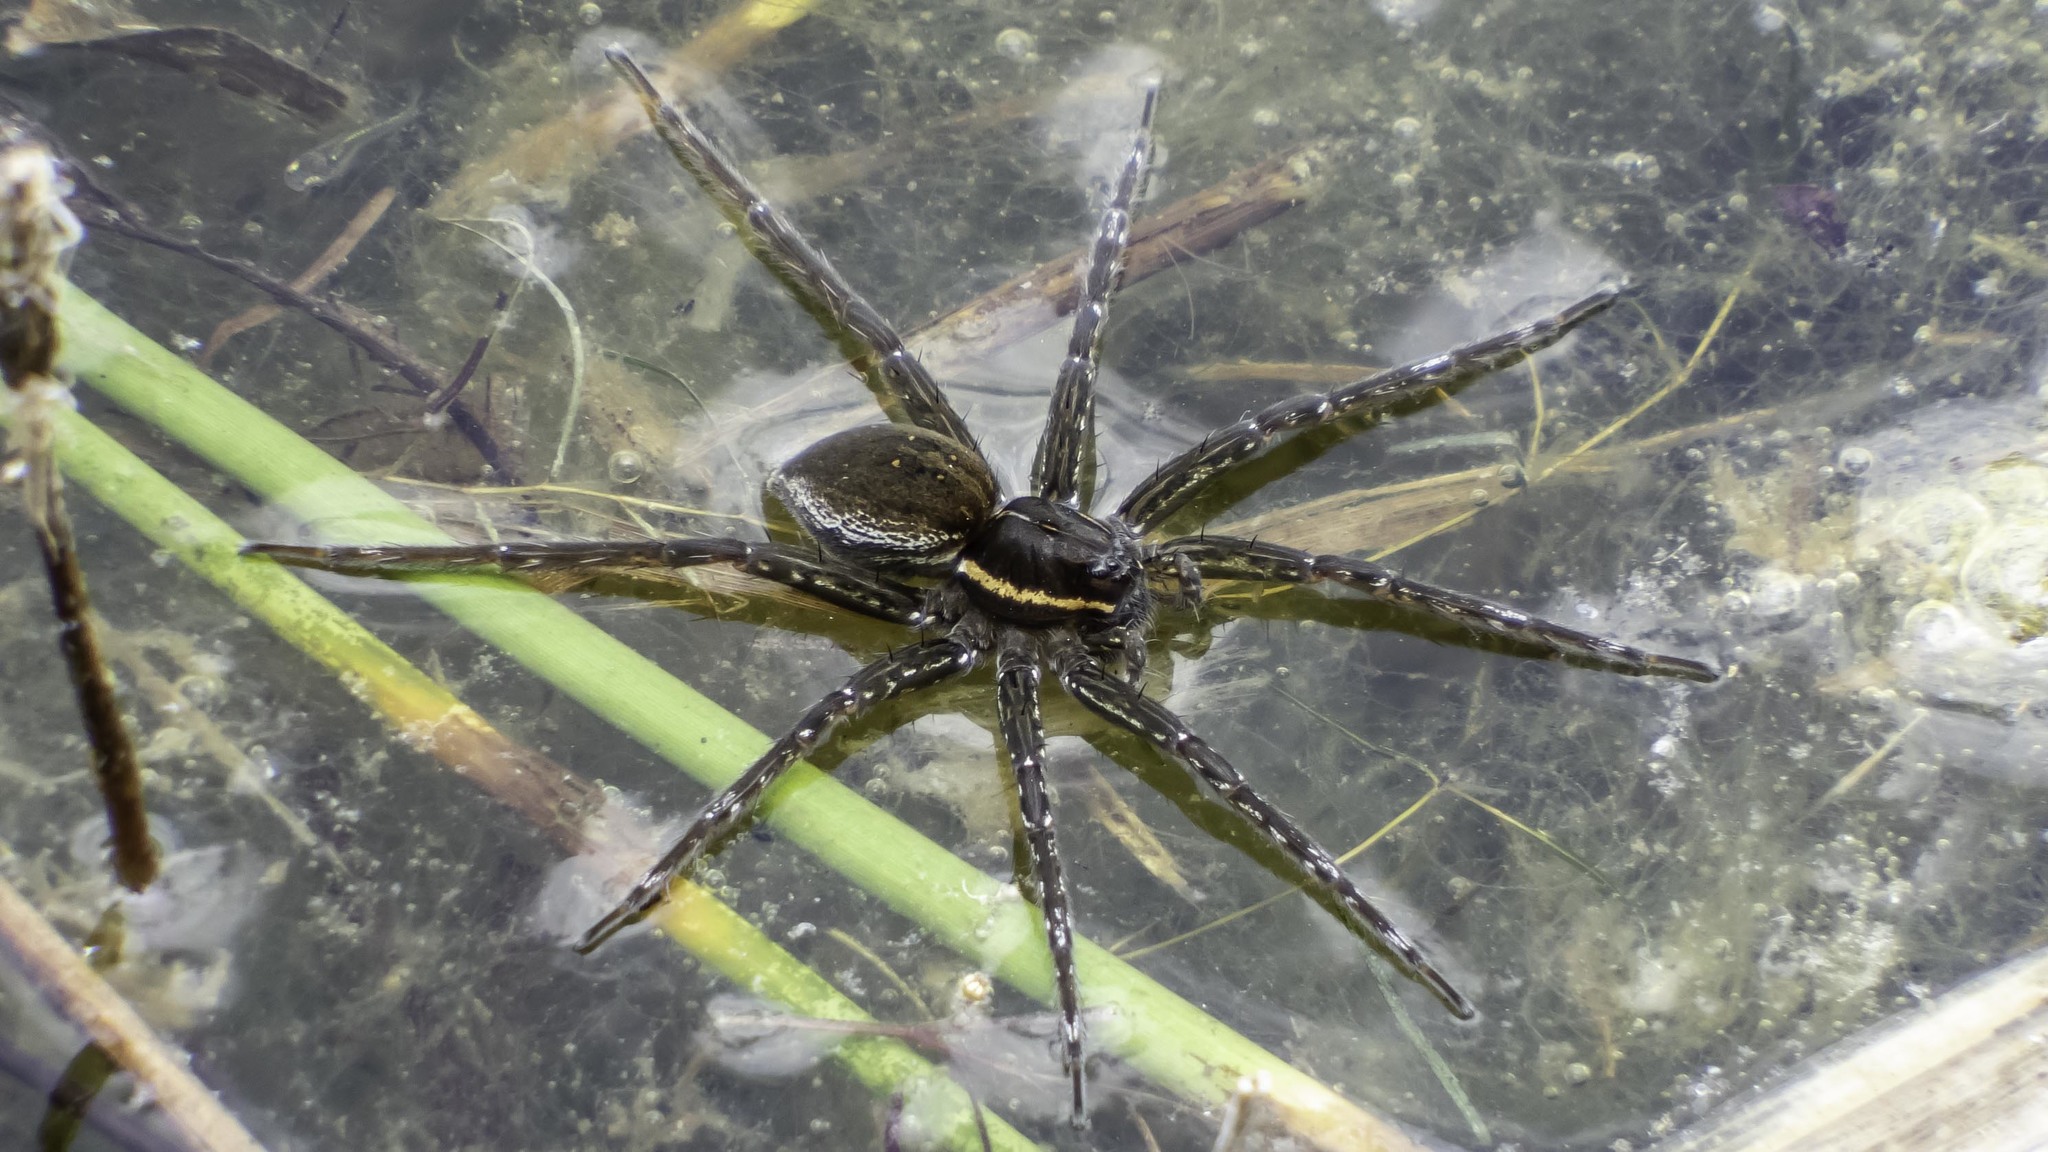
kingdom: Animalia
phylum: Arthropoda
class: Arachnida
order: Araneae
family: Pisauridae
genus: Dolomedes
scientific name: Dolomedes triton
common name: Six-spotted fishing spider
